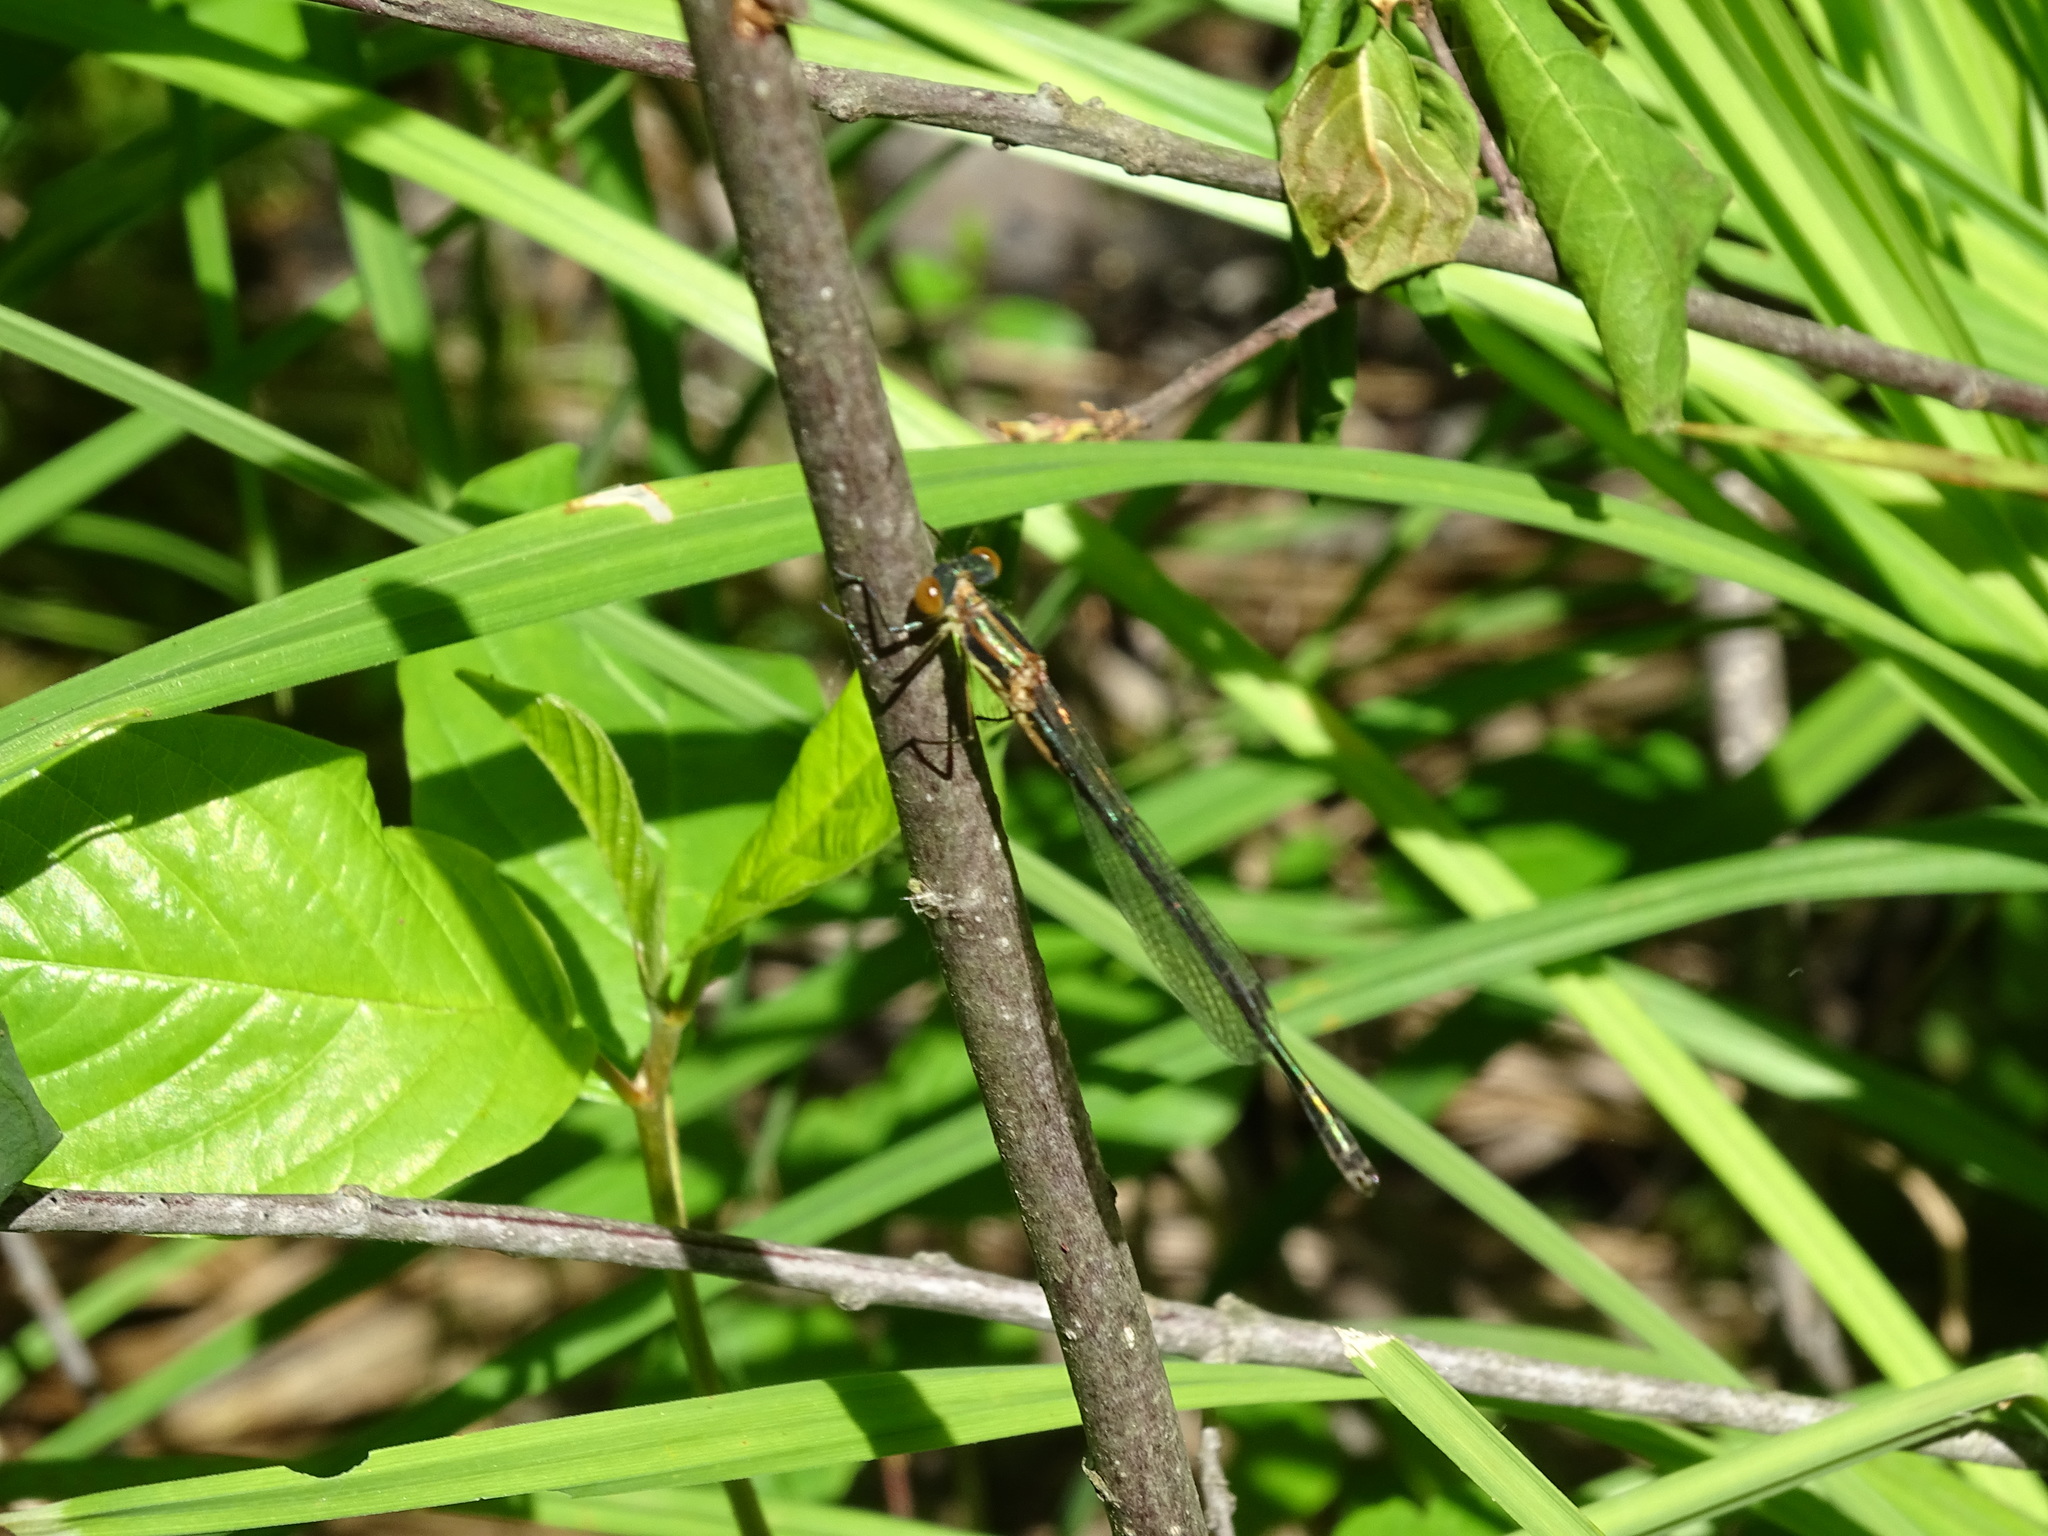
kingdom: Animalia
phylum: Arthropoda
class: Insecta
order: Odonata
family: Lestidae
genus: Lestes
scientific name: Lestes dryas
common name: Scarce emerald damselfly
